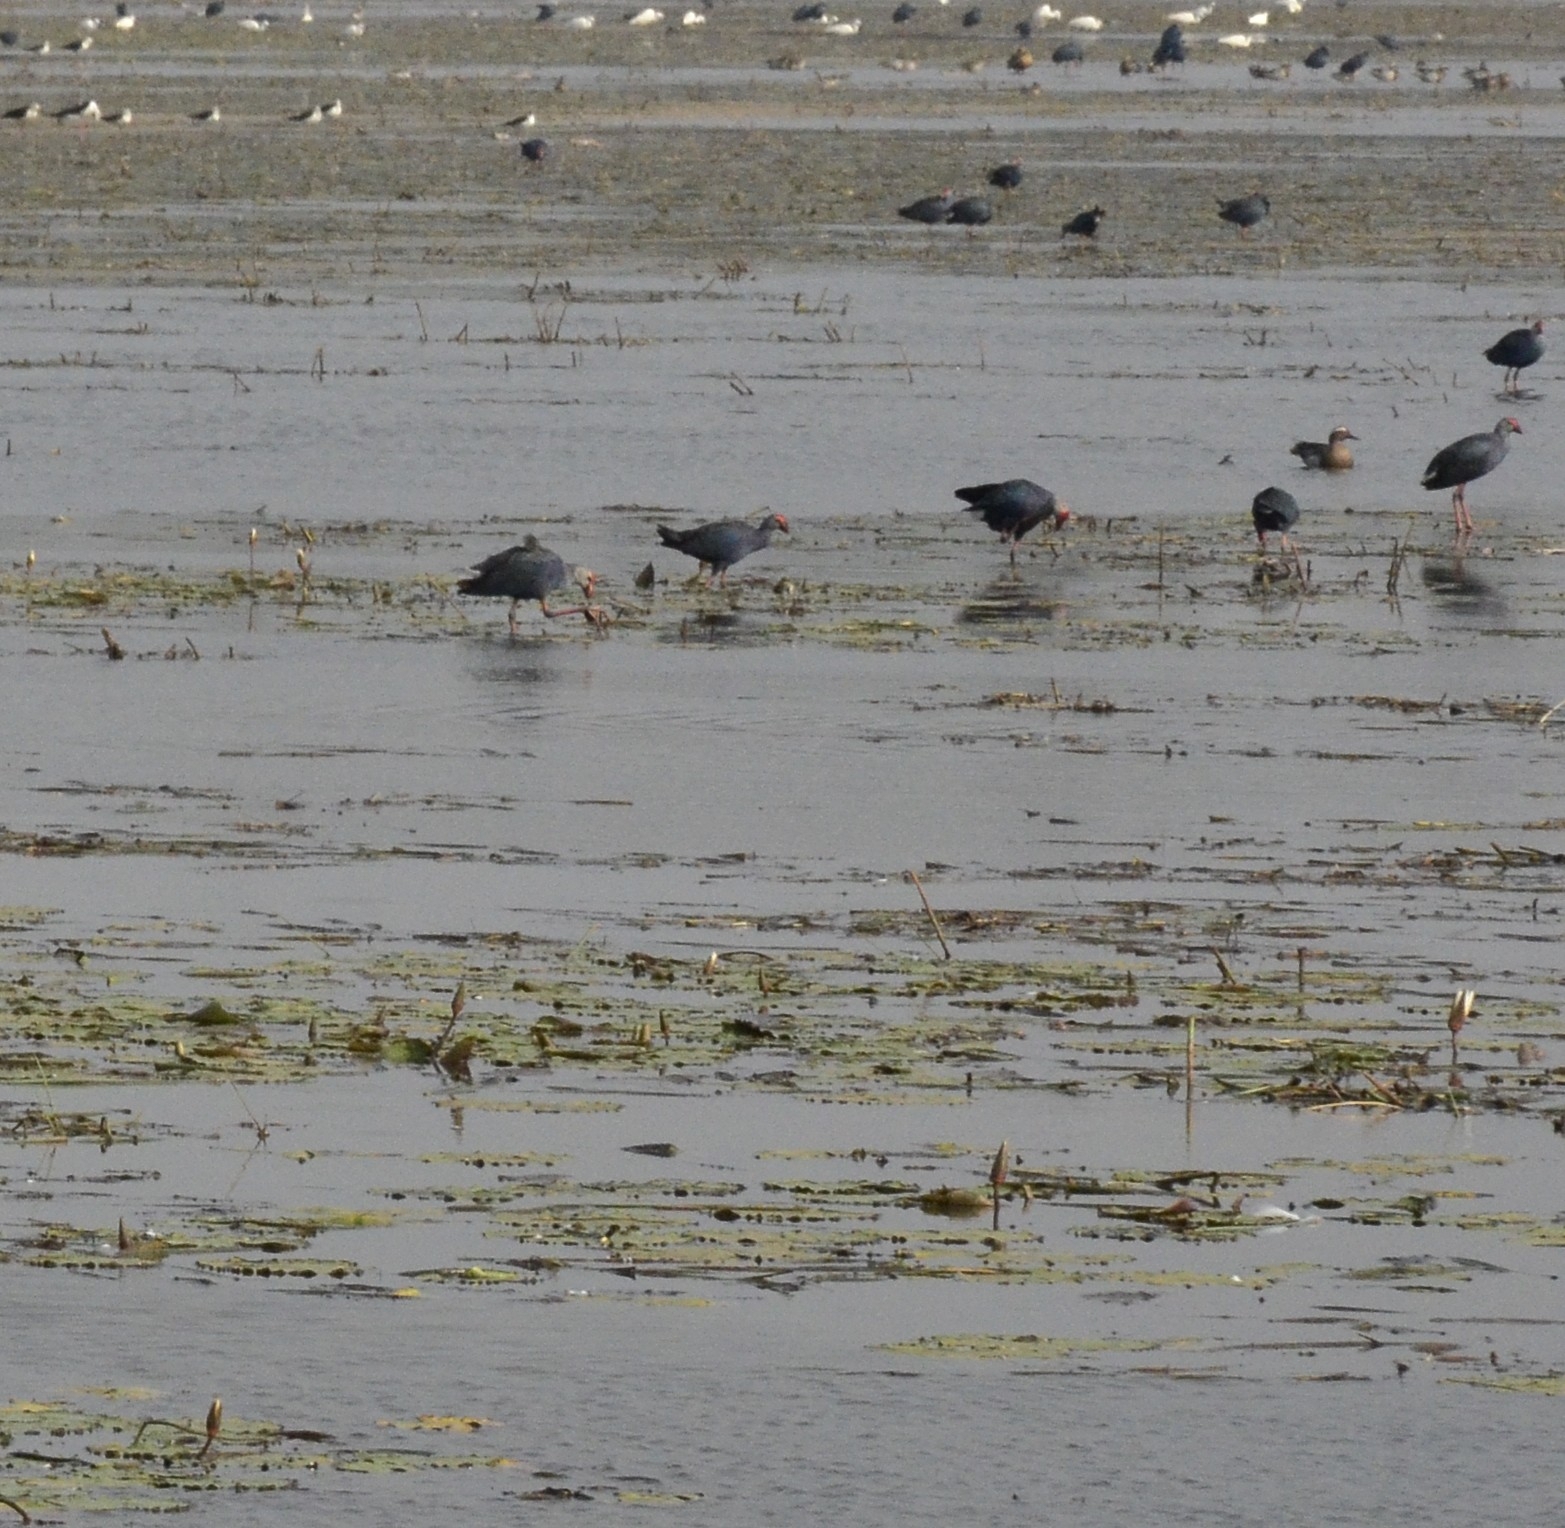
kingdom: Animalia
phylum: Chordata
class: Aves
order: Gruiformes
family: Rallidae
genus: Porphyrio
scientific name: Porphyrio porphyrio
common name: Purple swamphen
